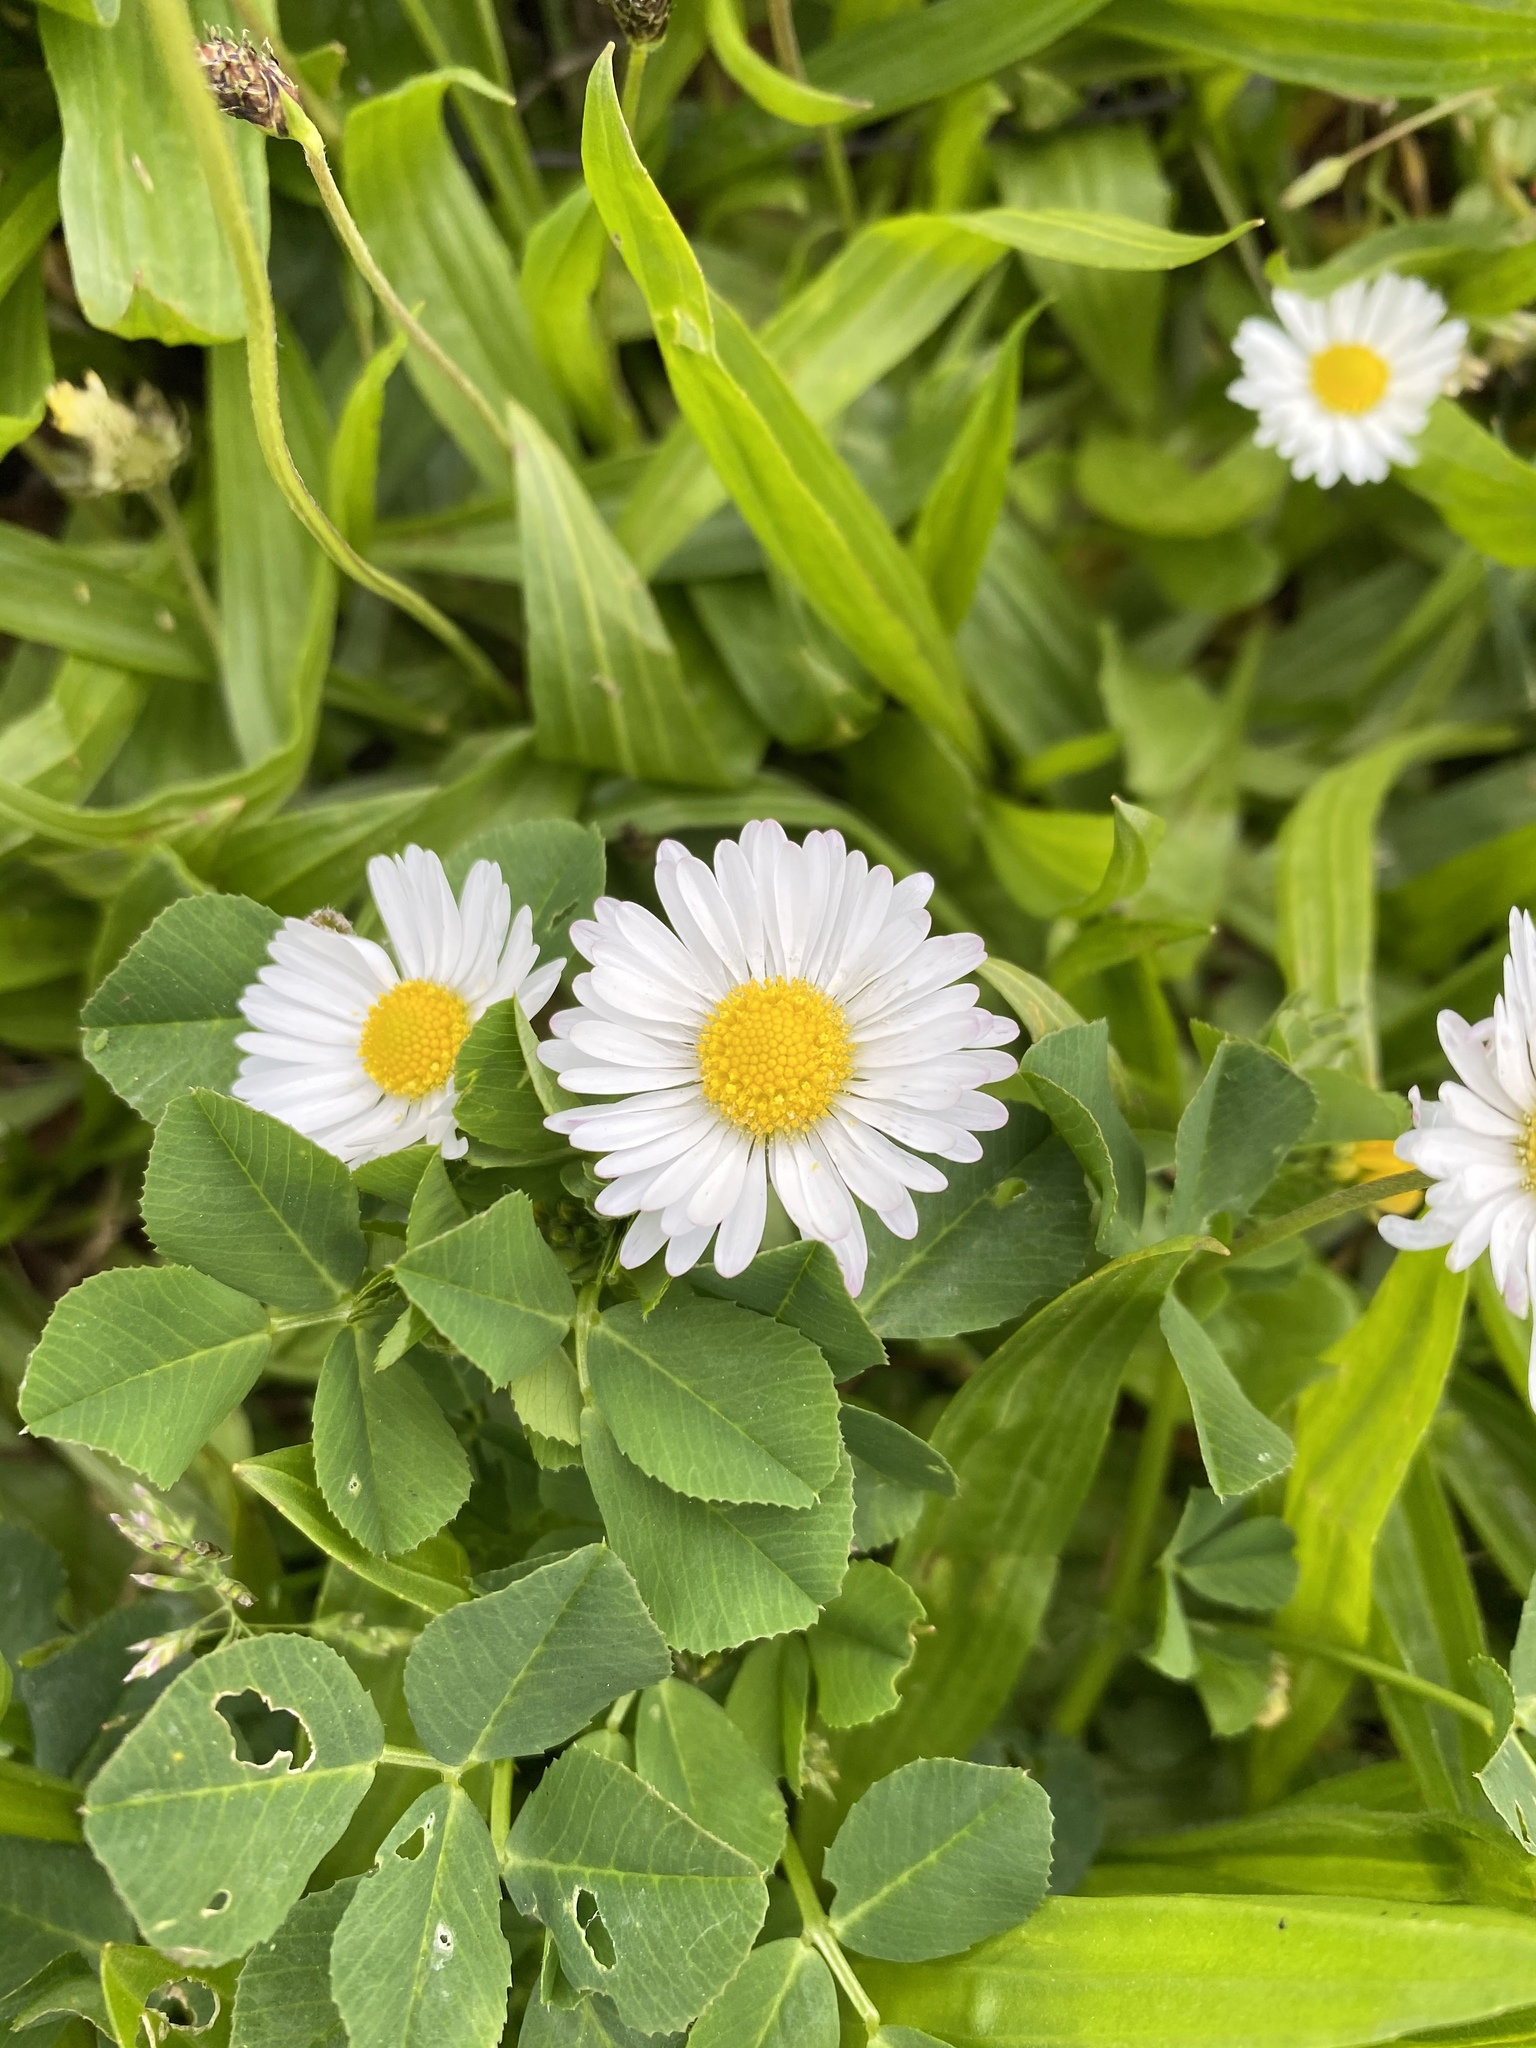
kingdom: Plantae
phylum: Tracheophyta
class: Magnoliopsida
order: Asterales
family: Asteraceae
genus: Bellis
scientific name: Bellis perennis
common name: Lawndaisy
